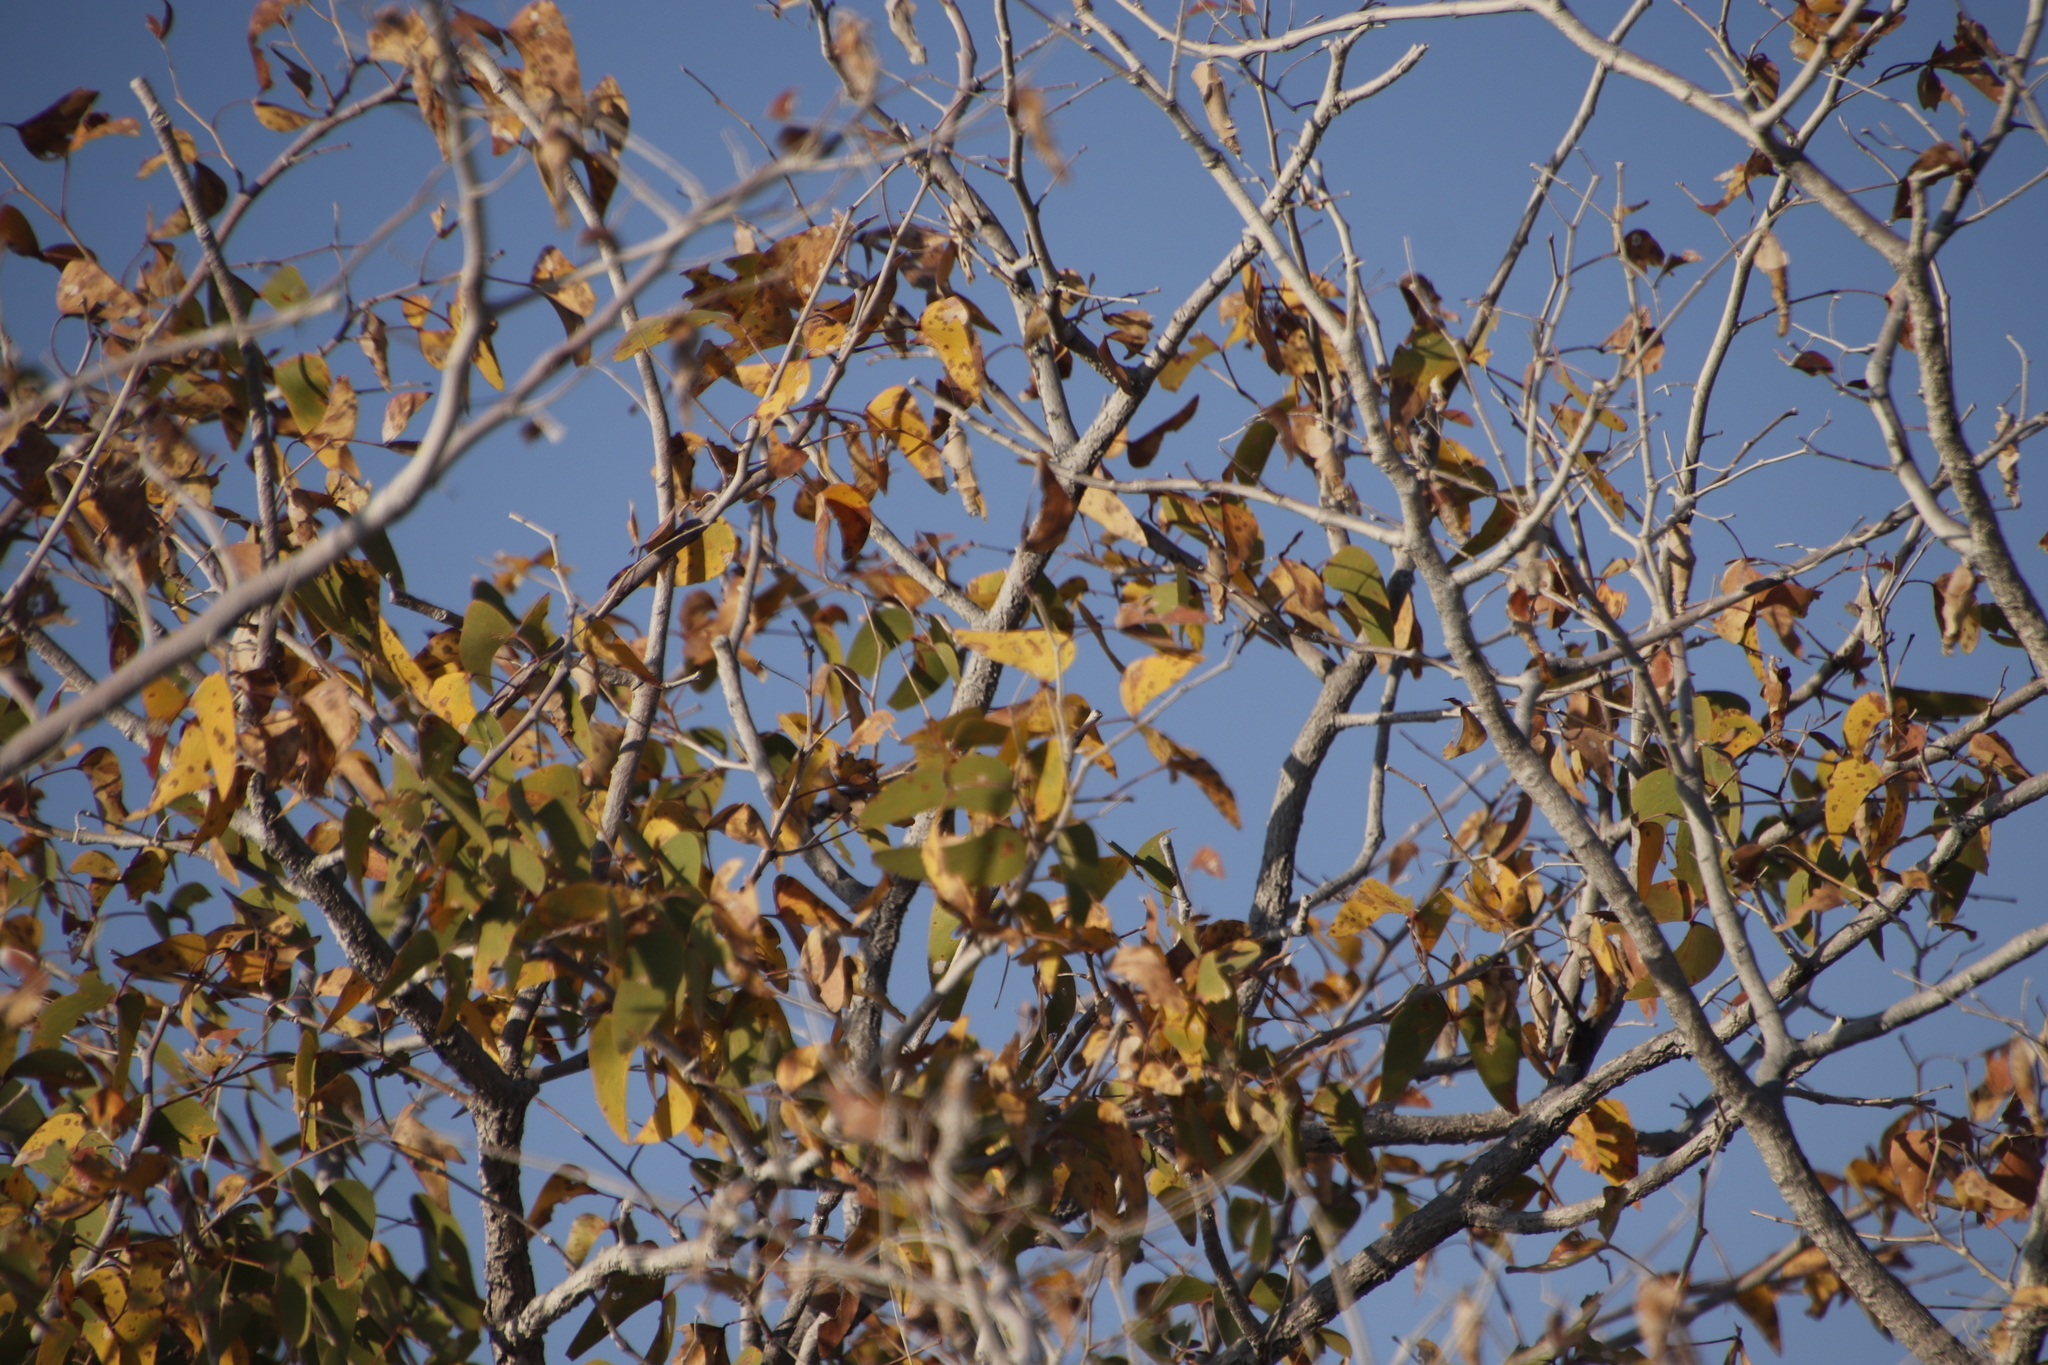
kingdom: Plantae
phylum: Tracheophyta
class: Magnoliopsida
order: Fabales
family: Fabaceae
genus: Colophospermum
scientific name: Colophospermum mopane
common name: Mopane
